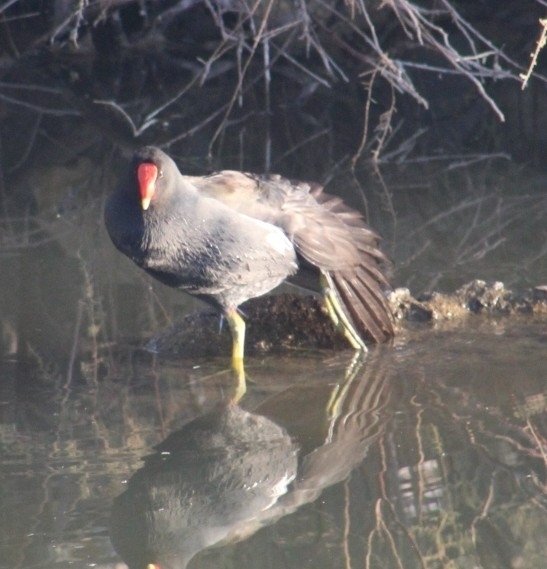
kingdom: Animalia
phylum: Chordata
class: Aves
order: Gruiformes
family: Rallidae
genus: Gallinula
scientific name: Gallinula chloropus
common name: Common moorhen
